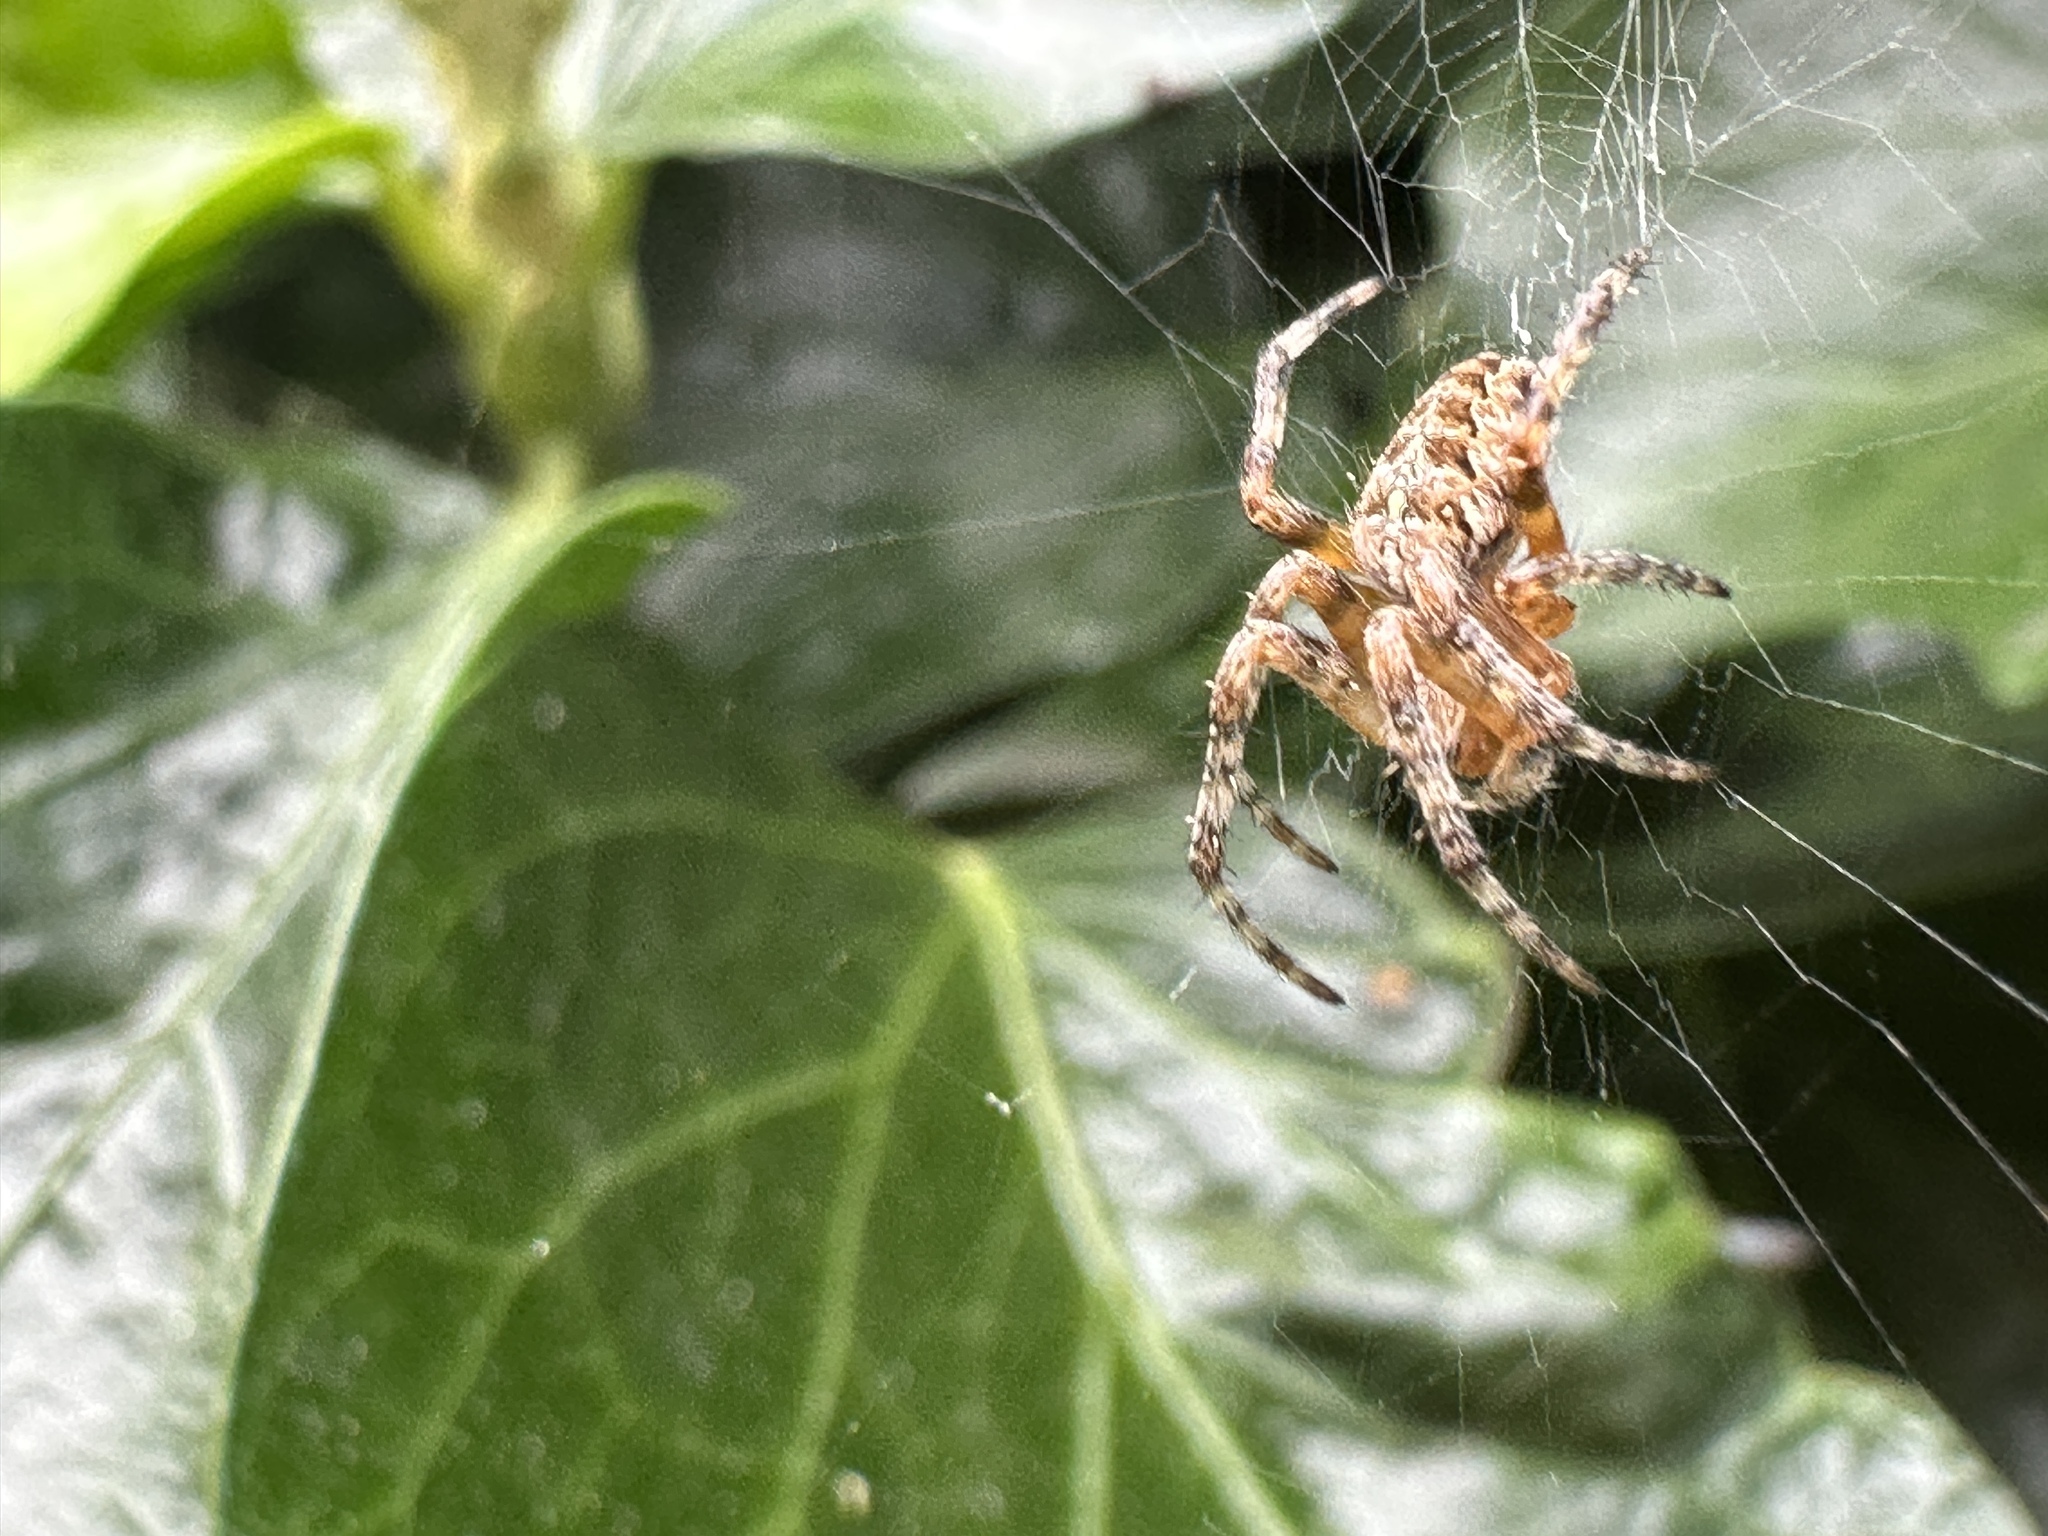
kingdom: Animalia
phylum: Arthropoda
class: Arachnida
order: Araneae
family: Araneidae
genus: Araneus
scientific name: Araneus diadematus
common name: Cross orbweaver
